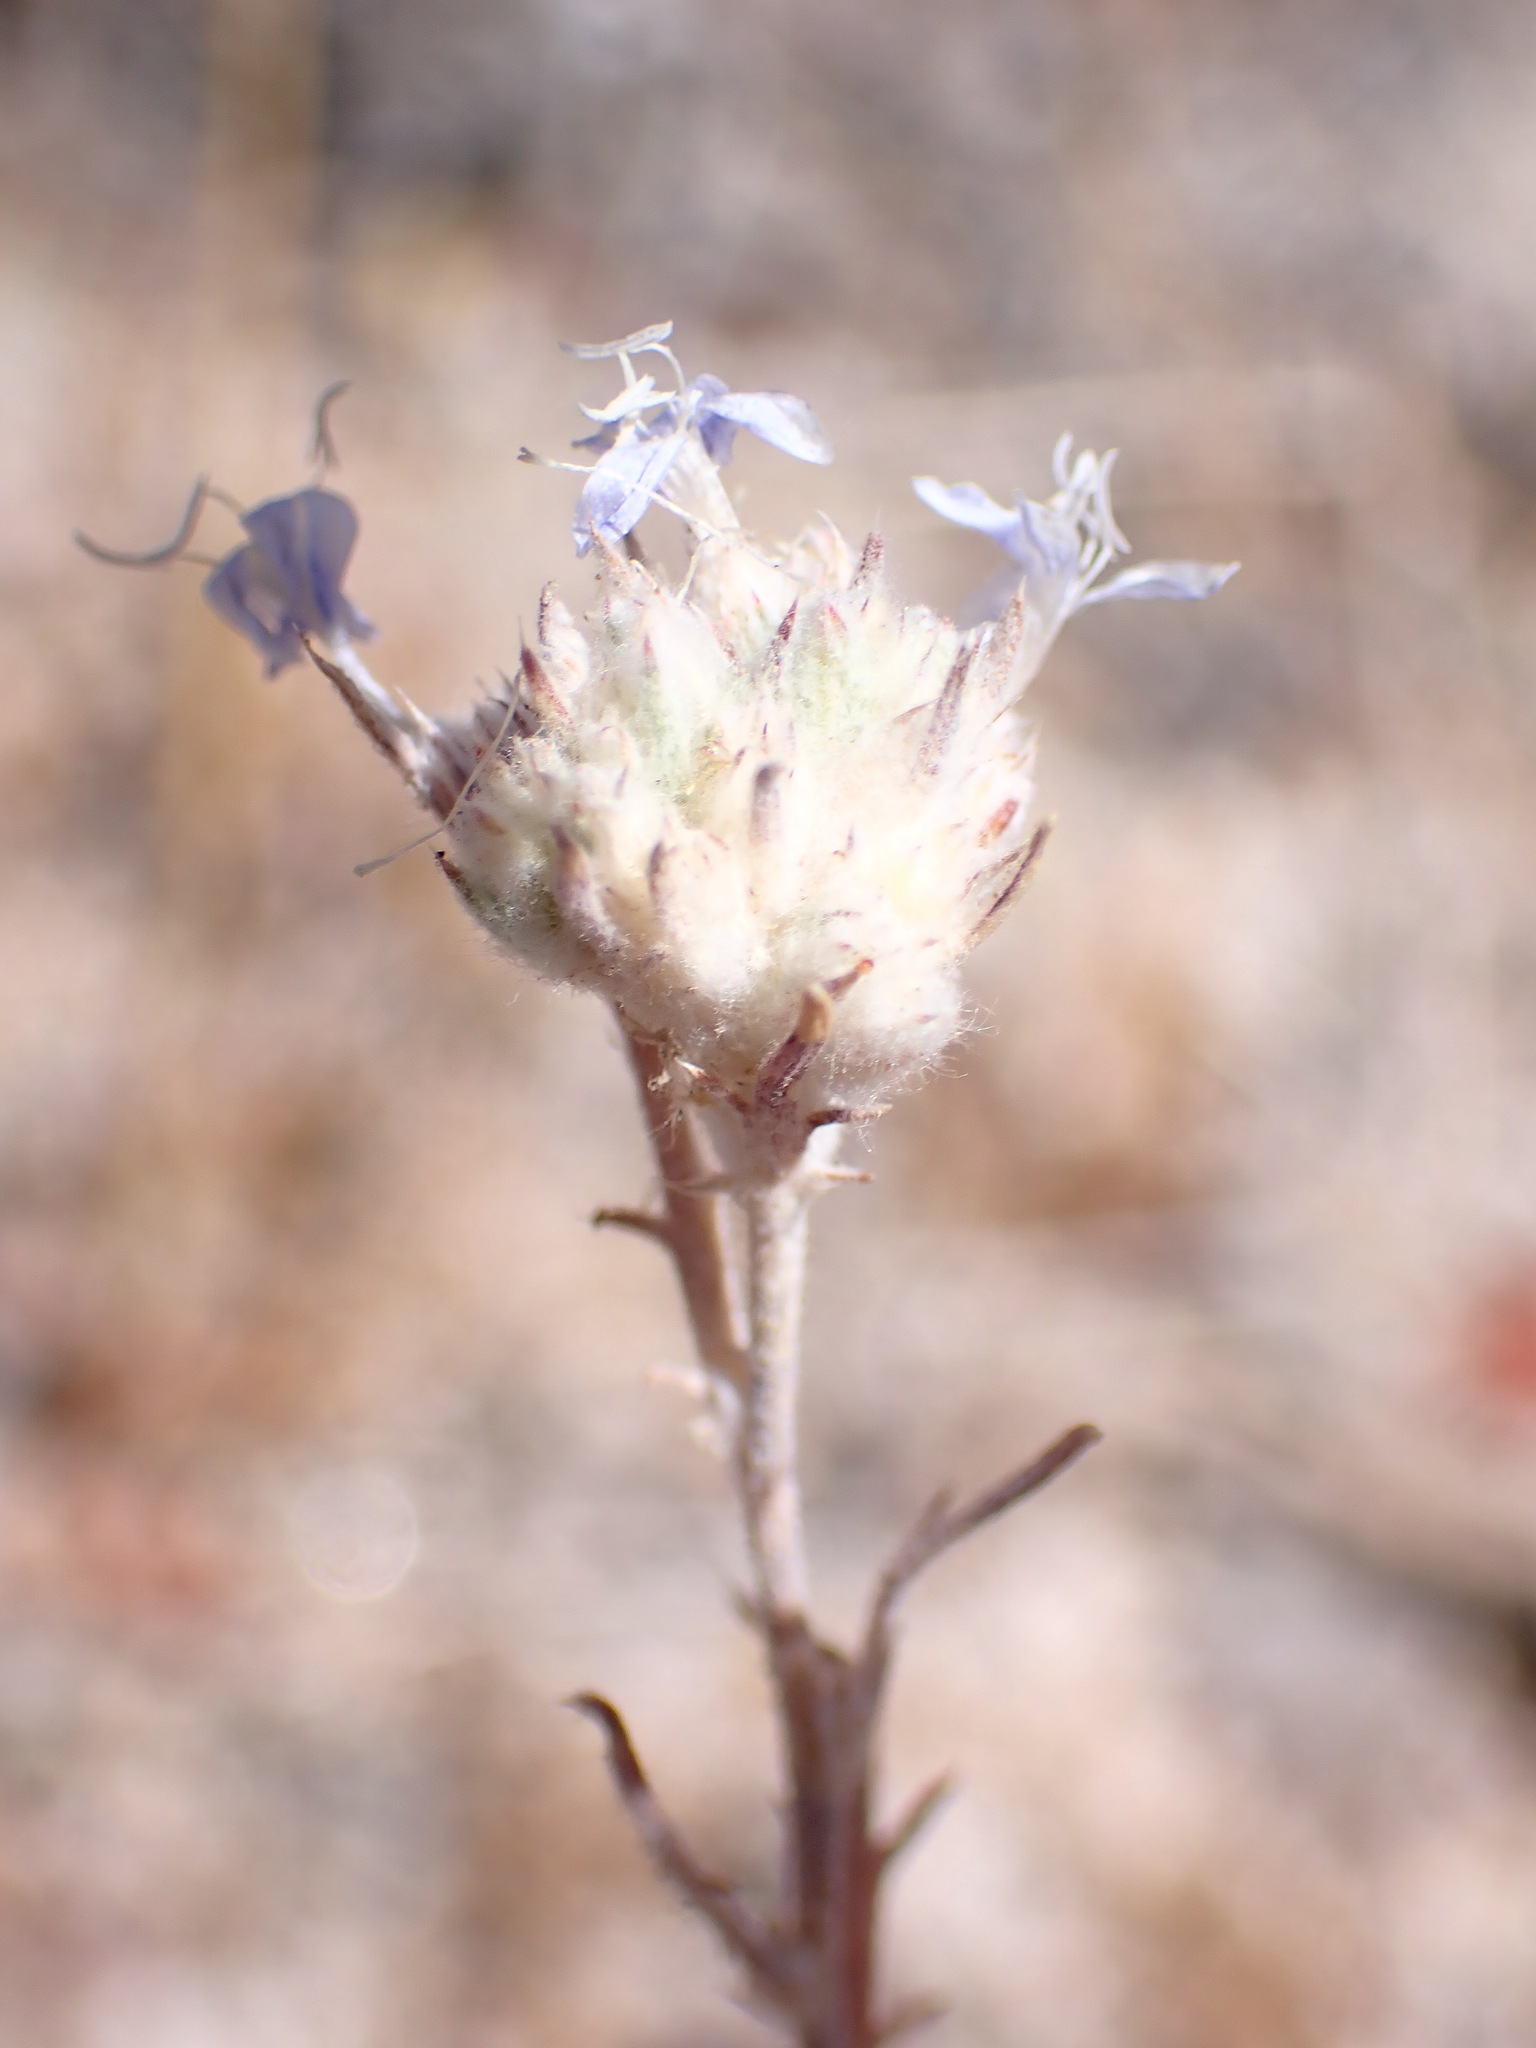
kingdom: Plantae
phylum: Tracheophyta
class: Magnoliopsida
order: Ericales
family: Polemoniaceae
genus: Eriastrum
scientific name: Eriastrum densifolium
